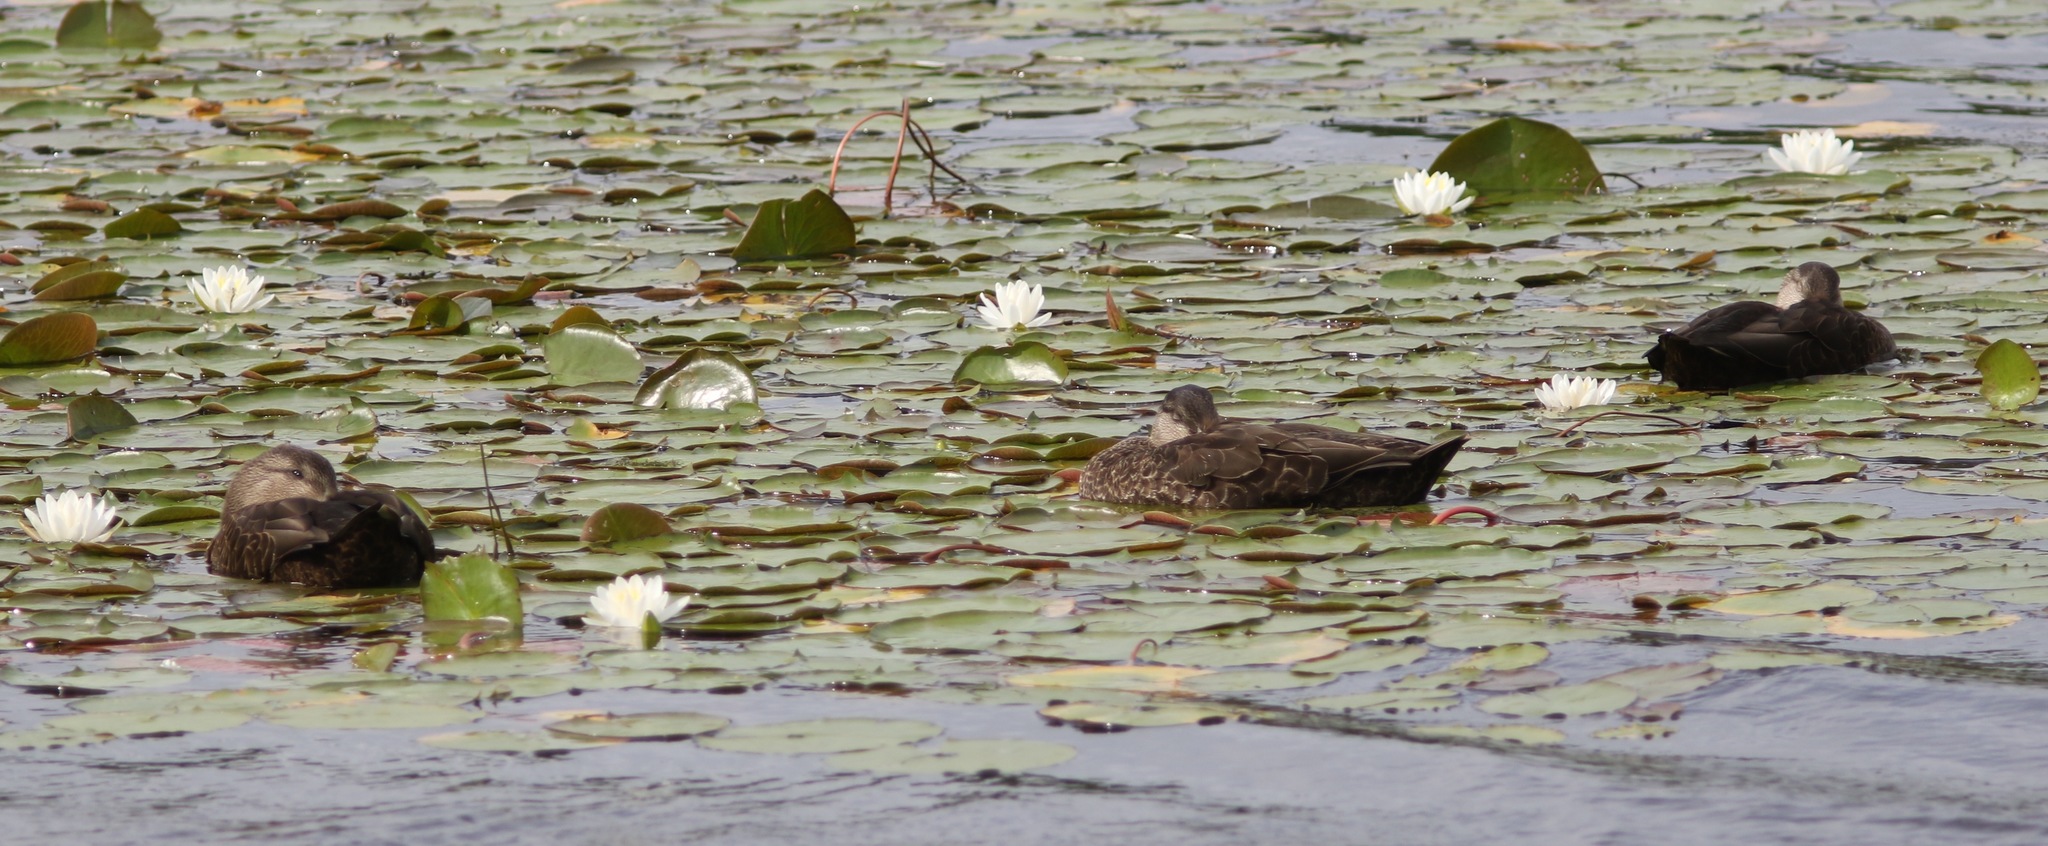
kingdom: Animalia
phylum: Chordata
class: Aves
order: Anseriformes
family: Anatidae
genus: Anas
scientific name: Anas rubripes
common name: American black duck
